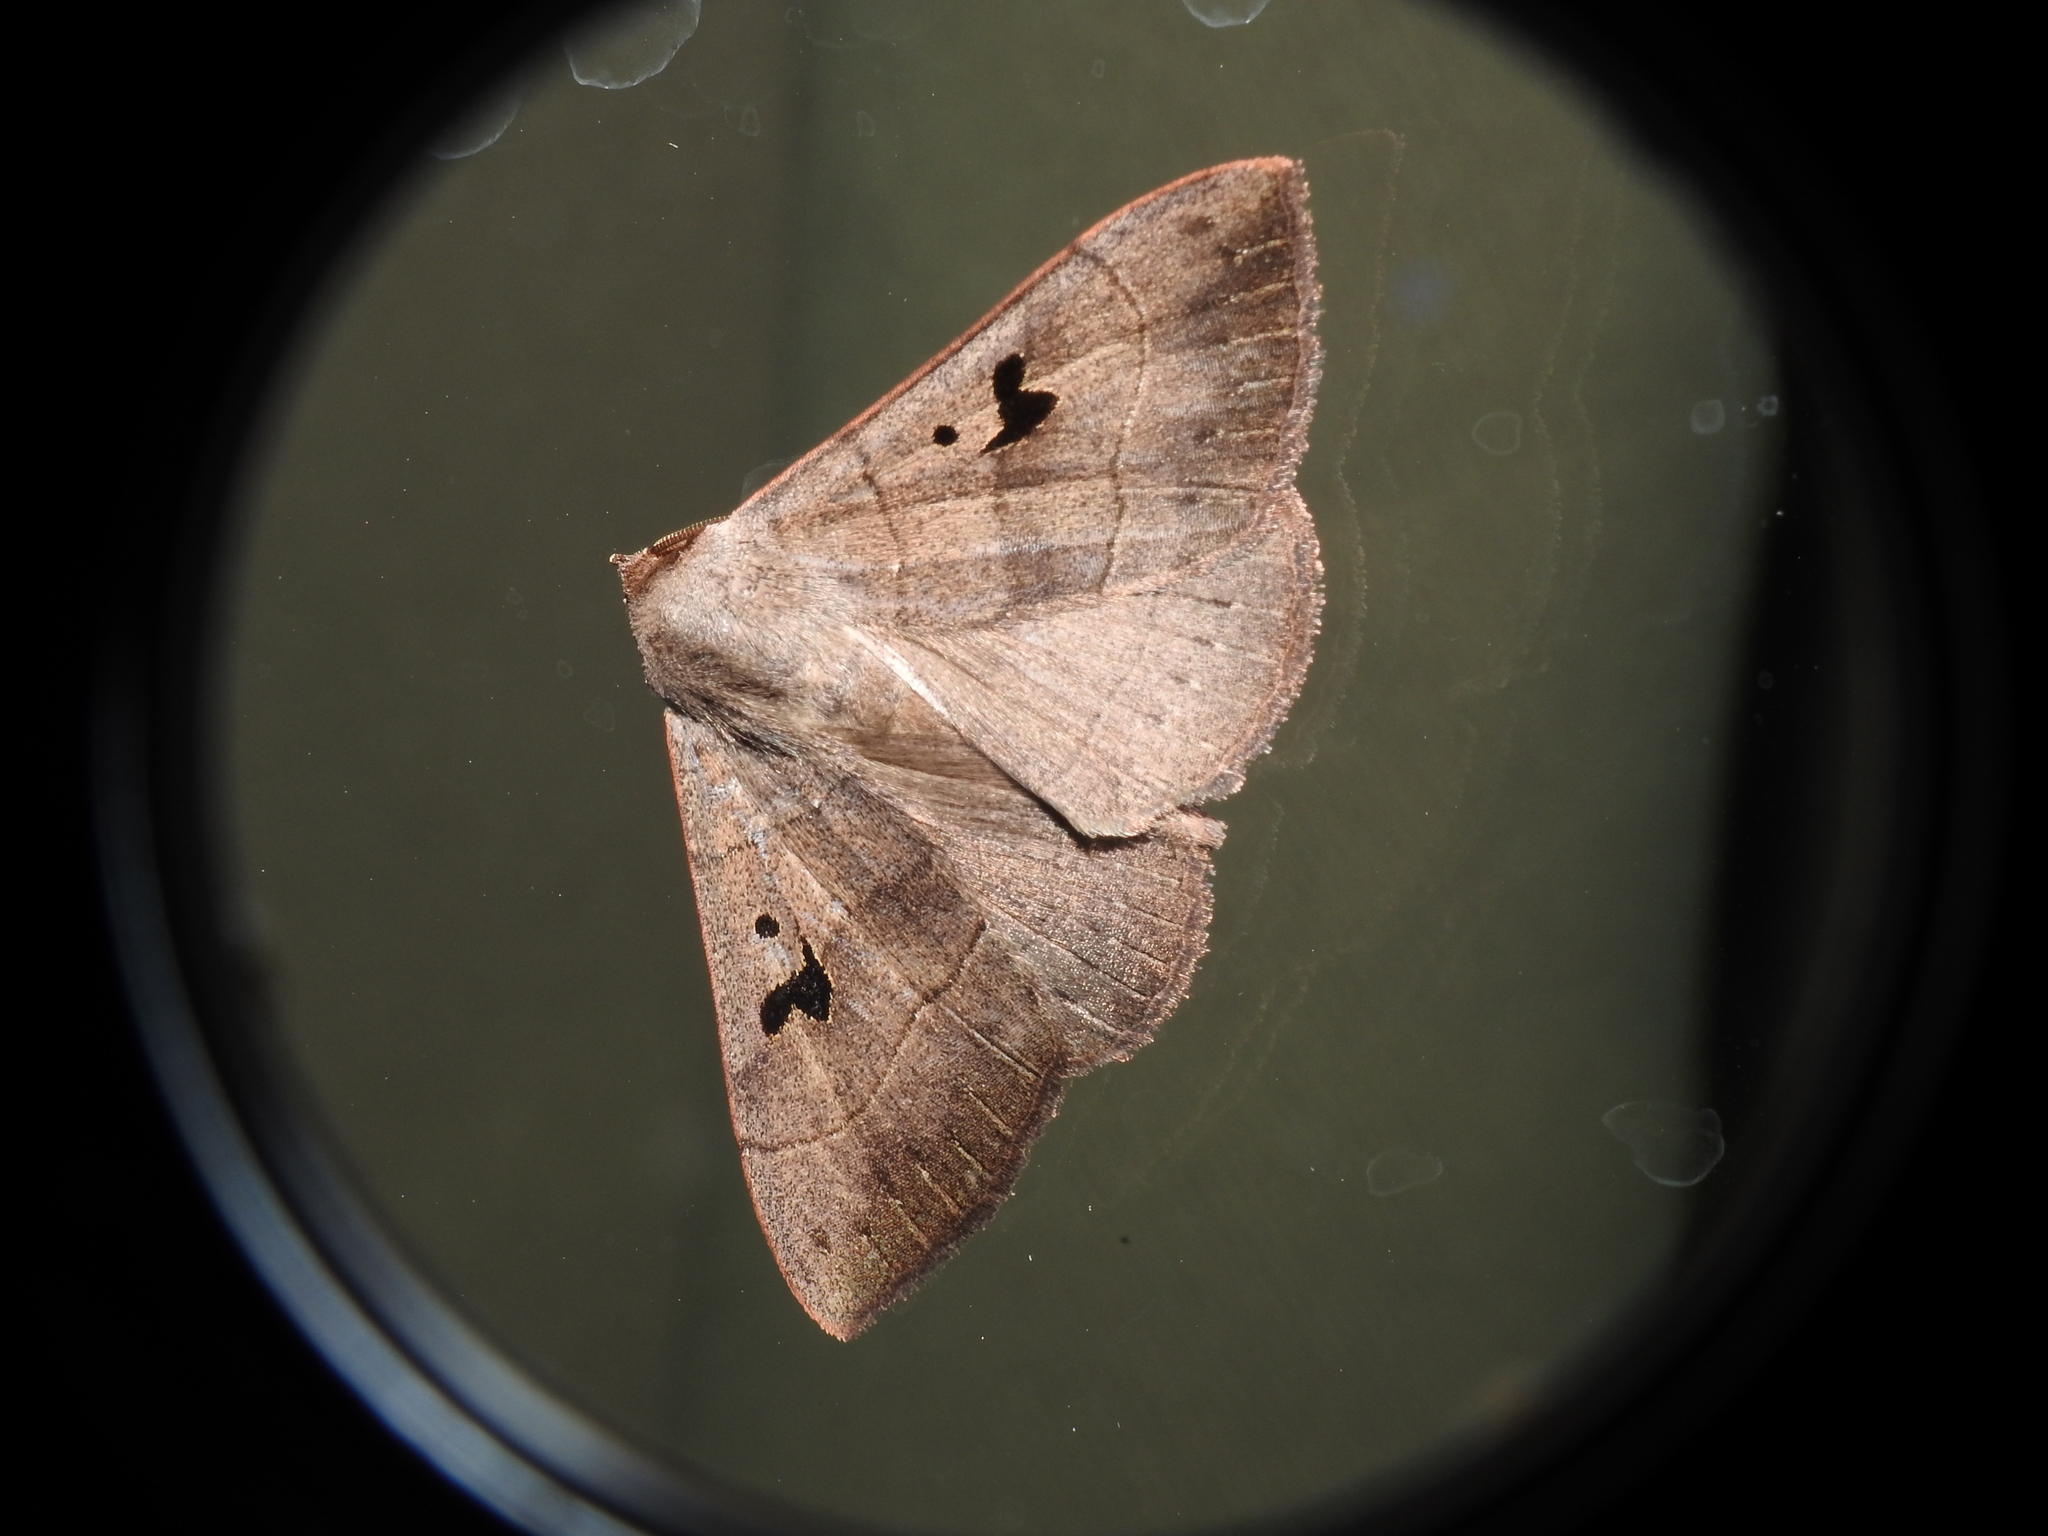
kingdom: Animalia
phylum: Arthropoda
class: Insecta
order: Lepidoptera
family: Erebidae
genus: Panopoda
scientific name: Panopoda carneicosta
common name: Brown panopoda moth
